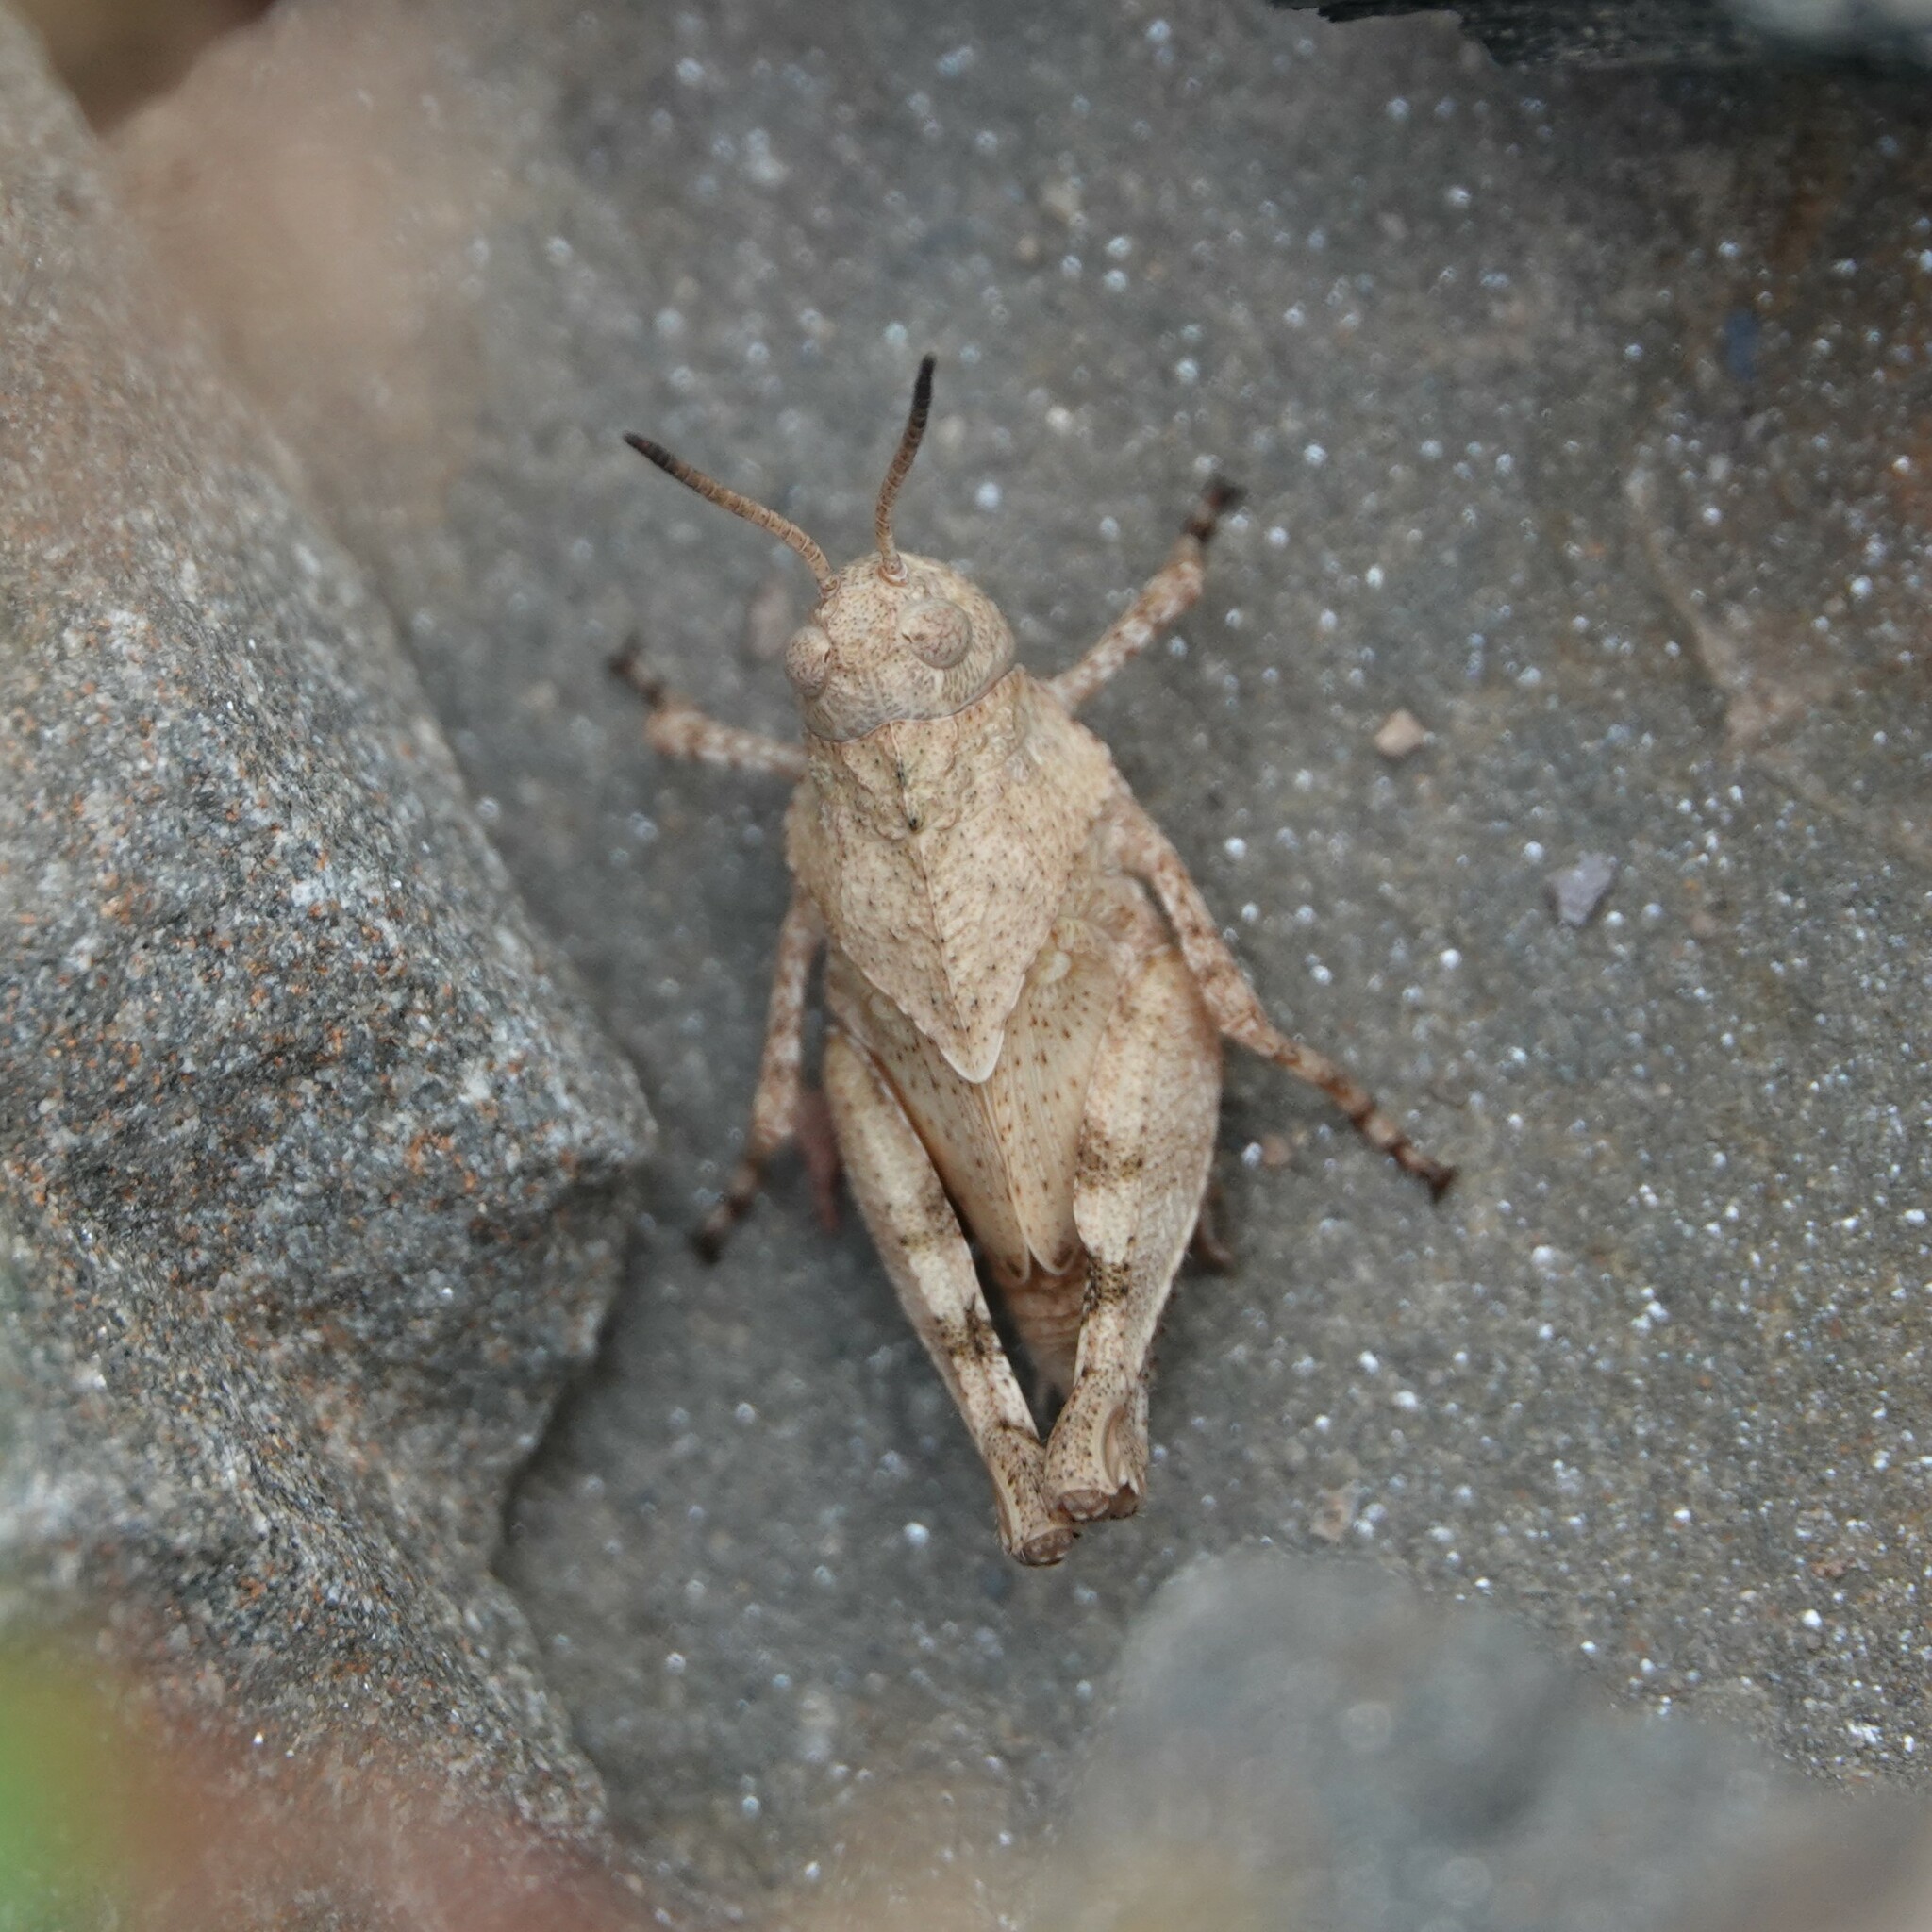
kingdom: Animalia
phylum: Arthropoda
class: Insecta
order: Orthoptera
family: Acrididae
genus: Oedipoda
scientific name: Oedipoda caerulescens
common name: Blue-winged grasshopper
